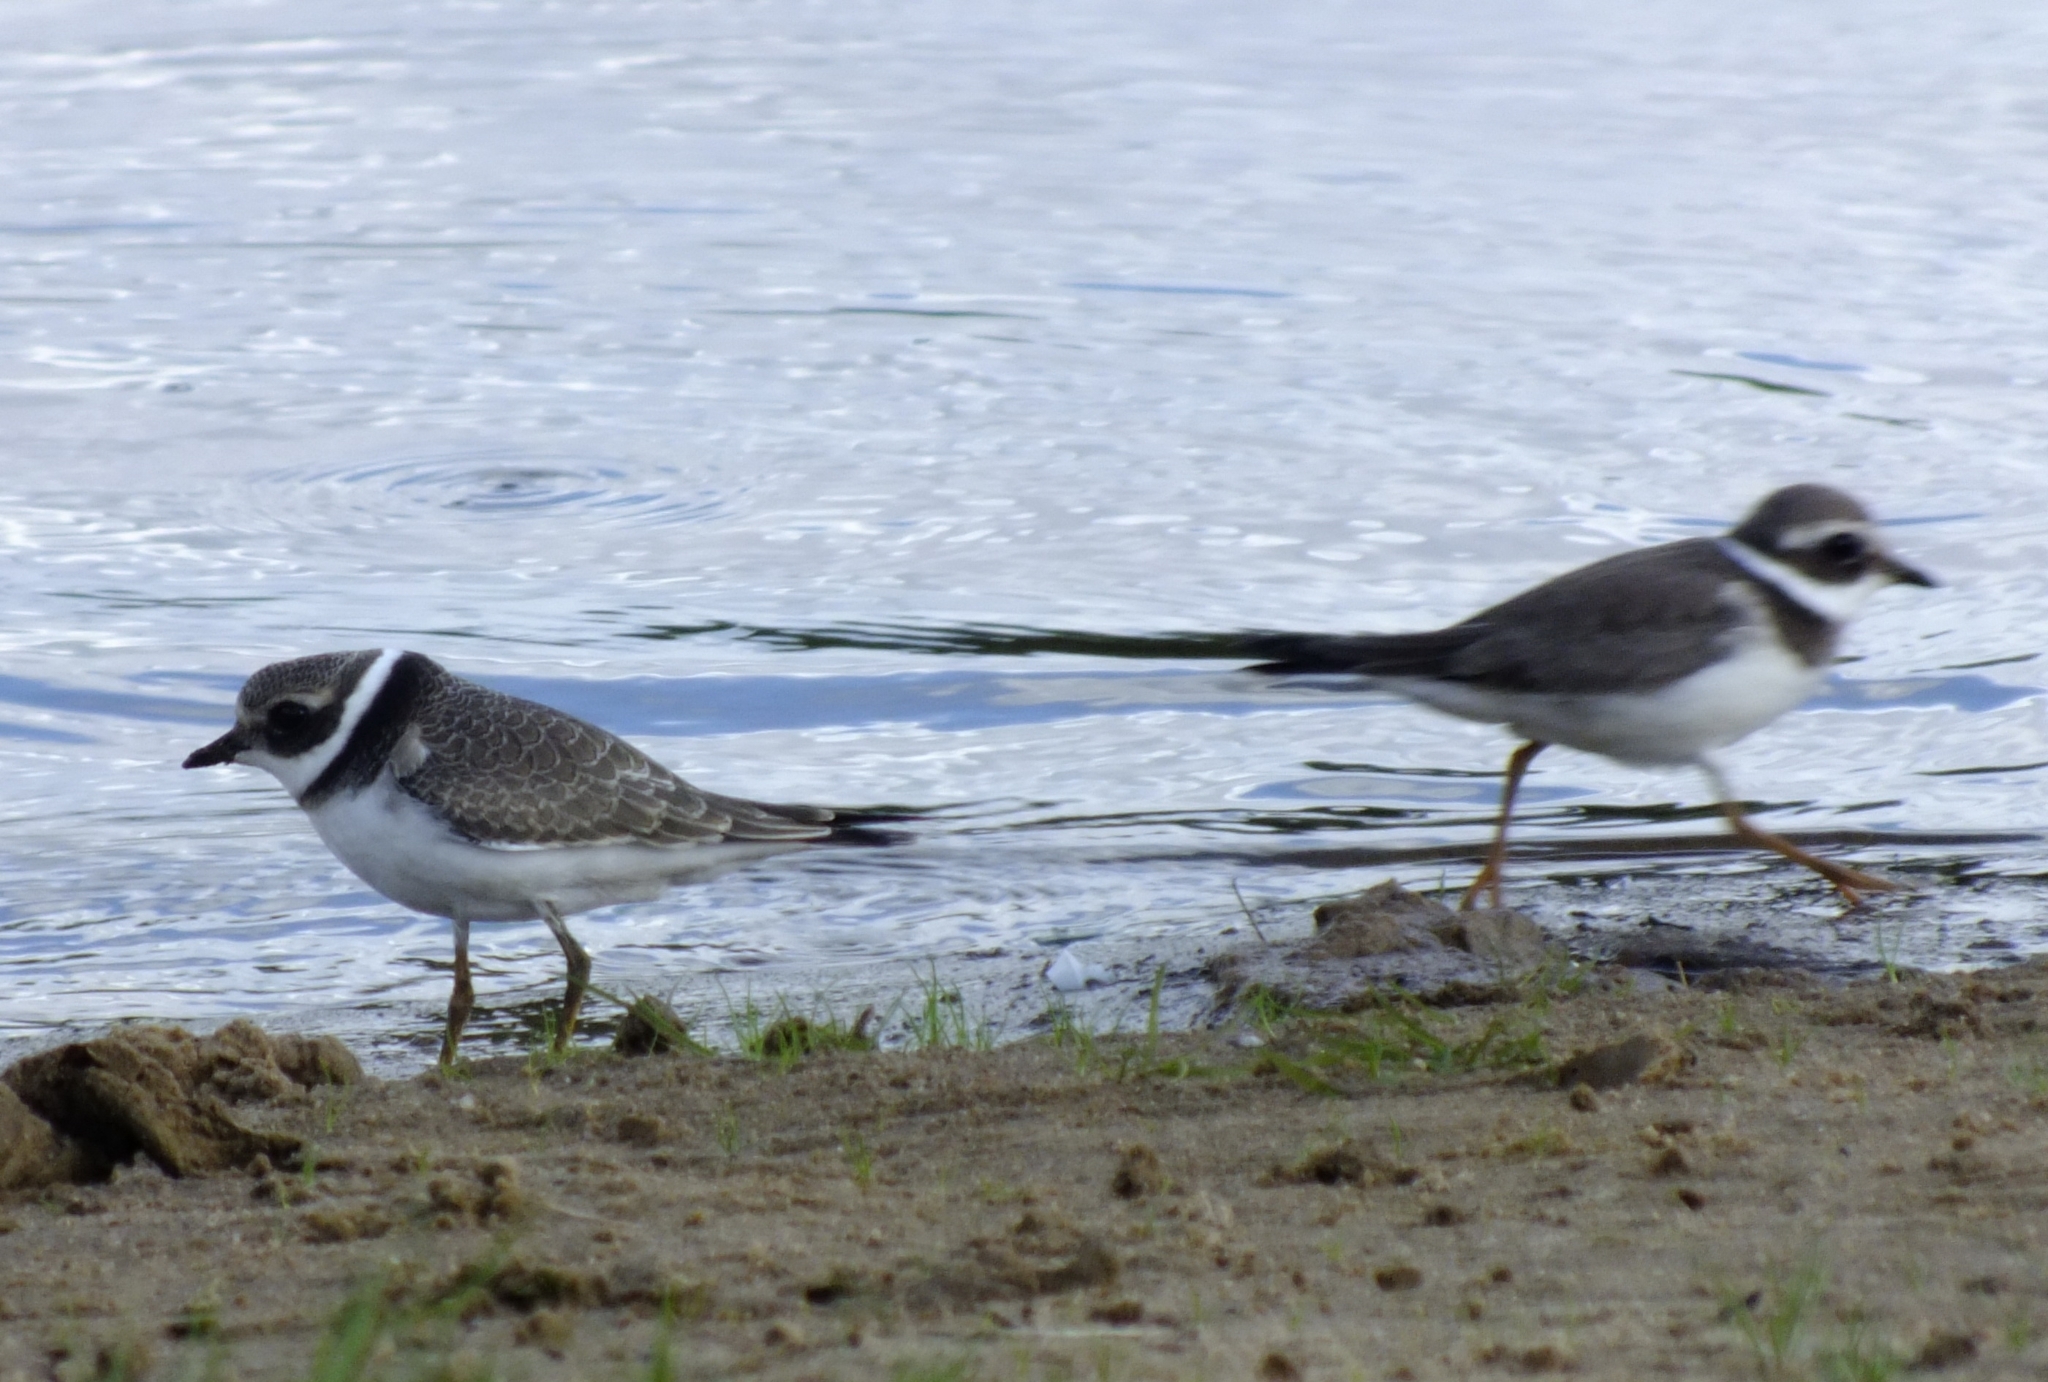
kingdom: Animalia
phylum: Chordata
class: Aves
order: Charadriiformes
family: Charadriidae
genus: Charadrius
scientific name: Charadrius hiaticula
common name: Common ringed plover
